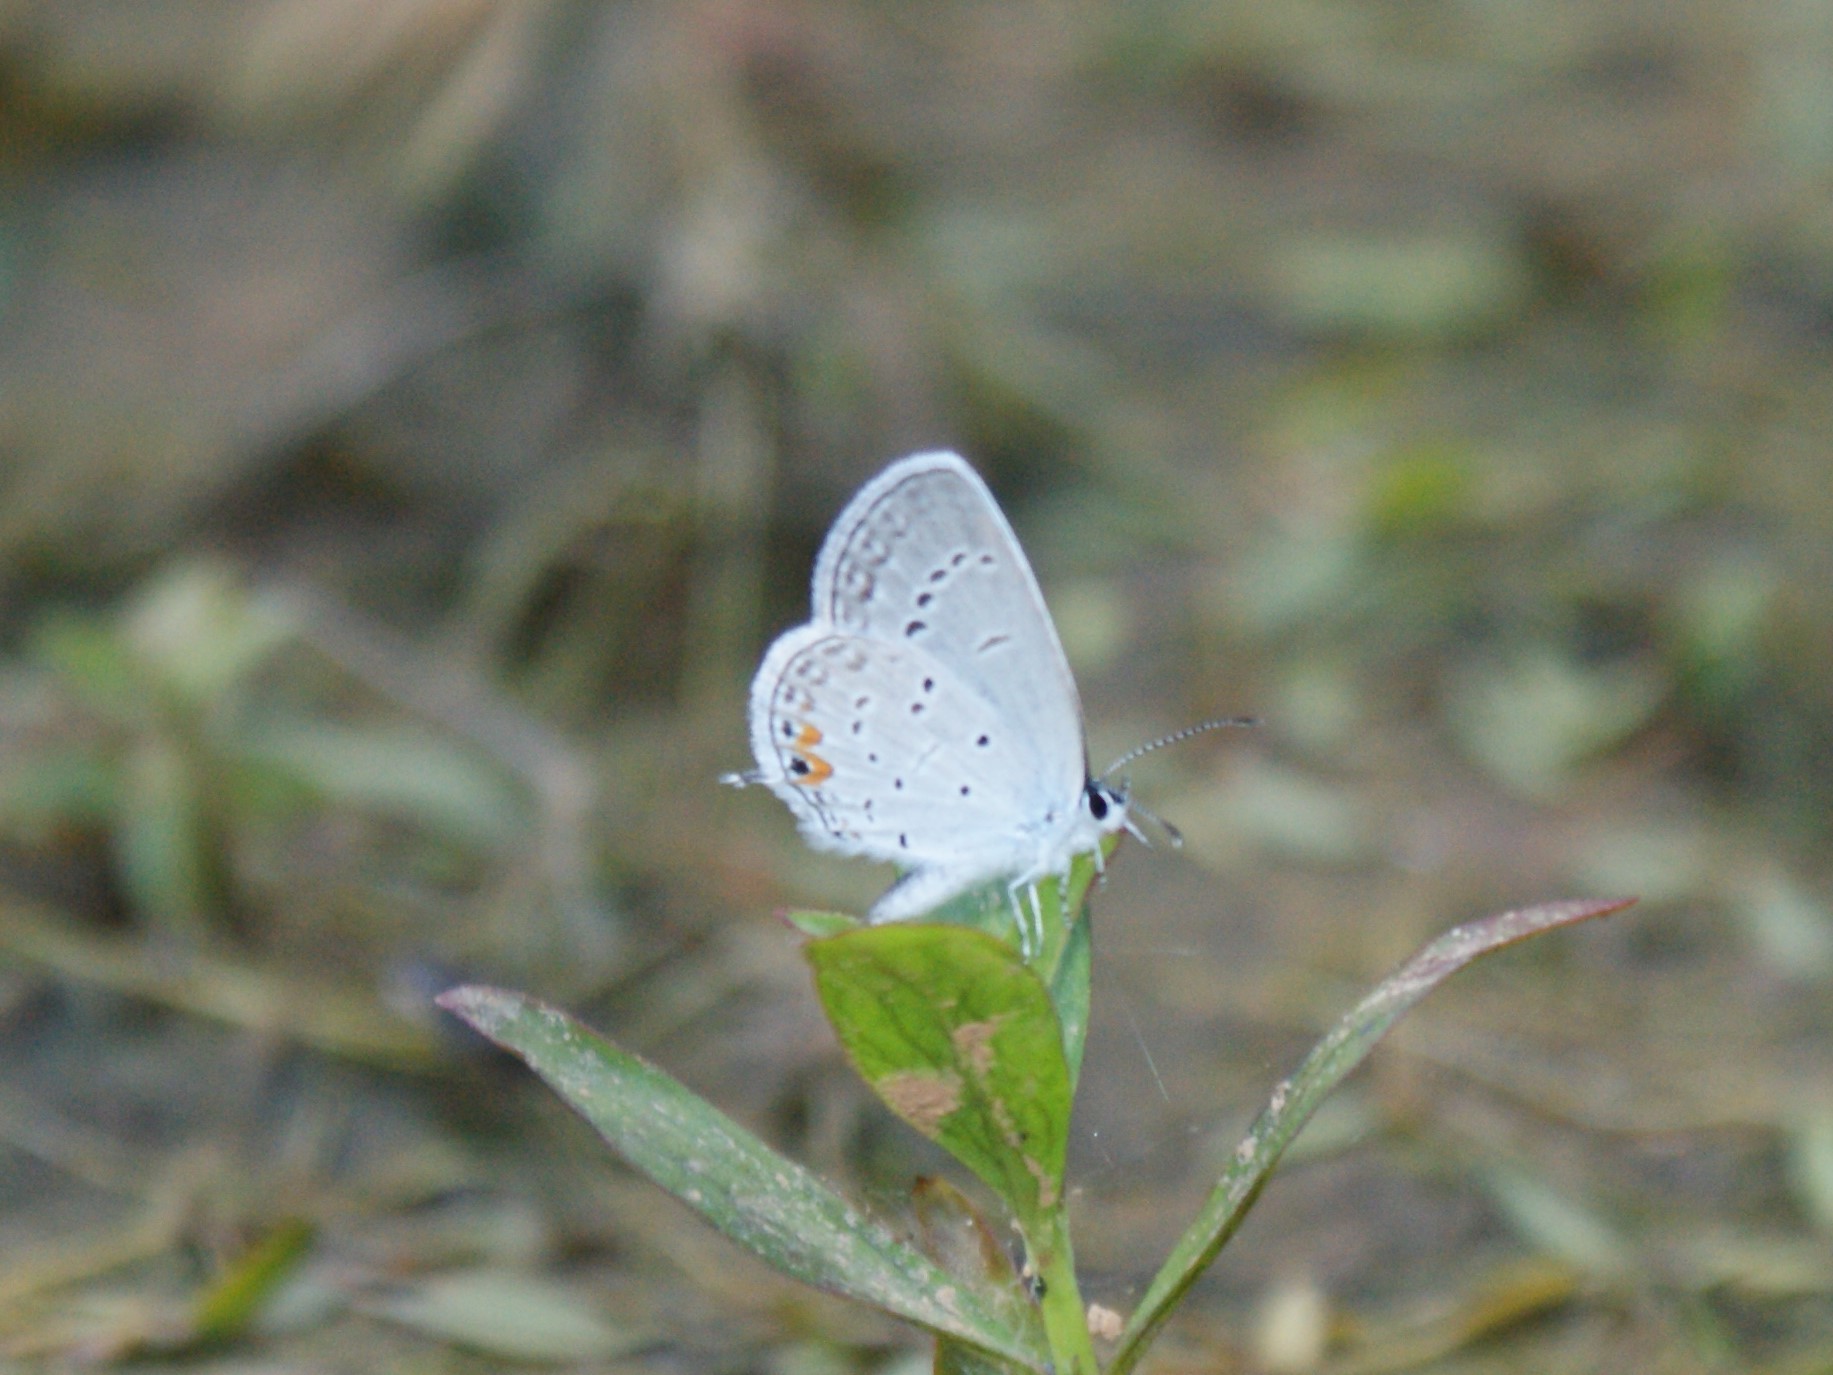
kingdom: Animalia
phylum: Arthropoda
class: Insecta
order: Lepidoptera
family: Lycaenidae
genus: Elkalyce
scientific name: Elkalyce comyntas
